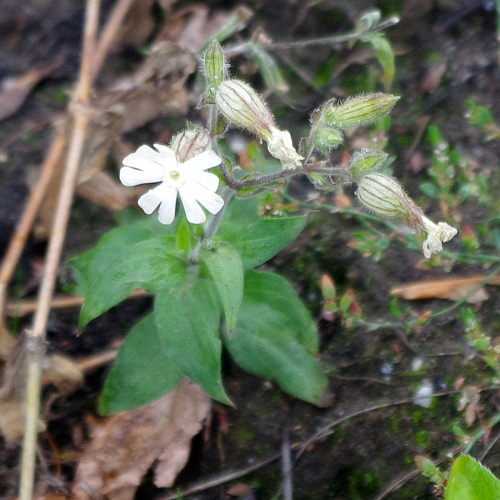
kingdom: Plantae
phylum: Tracheophyta
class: Magnoliopsida
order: Caryophyllales
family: Caryophyllaceae
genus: Silene
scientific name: Silene latifolia
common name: White campion
